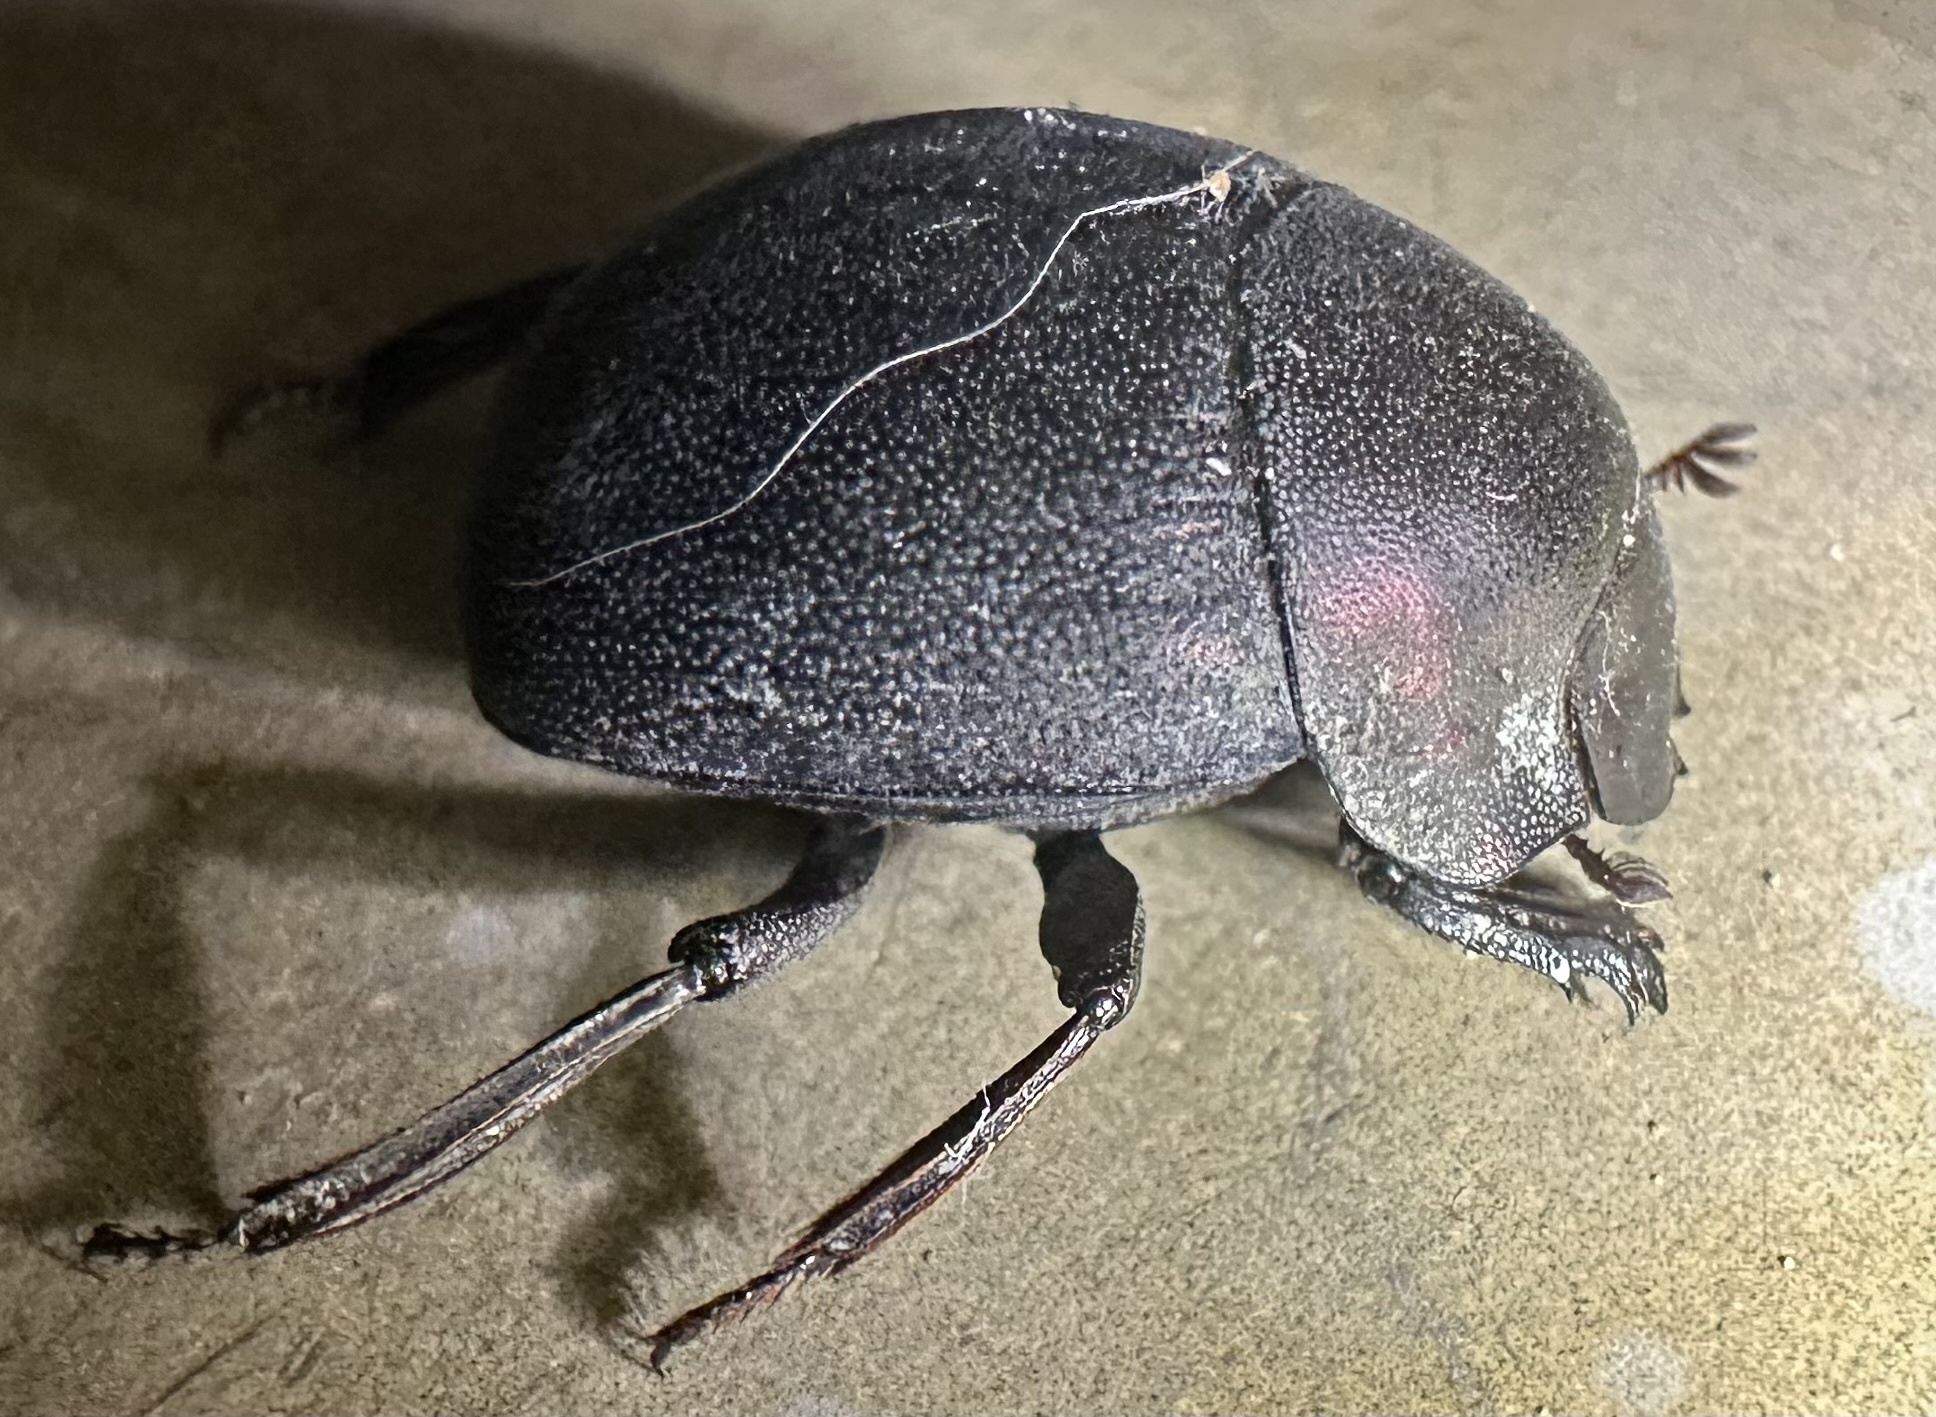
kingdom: Animalia
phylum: Arthropoda
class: Insecta
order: Coleoptera
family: Scarabaeidae
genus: Chalconotus
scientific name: Chalconotus convexus
